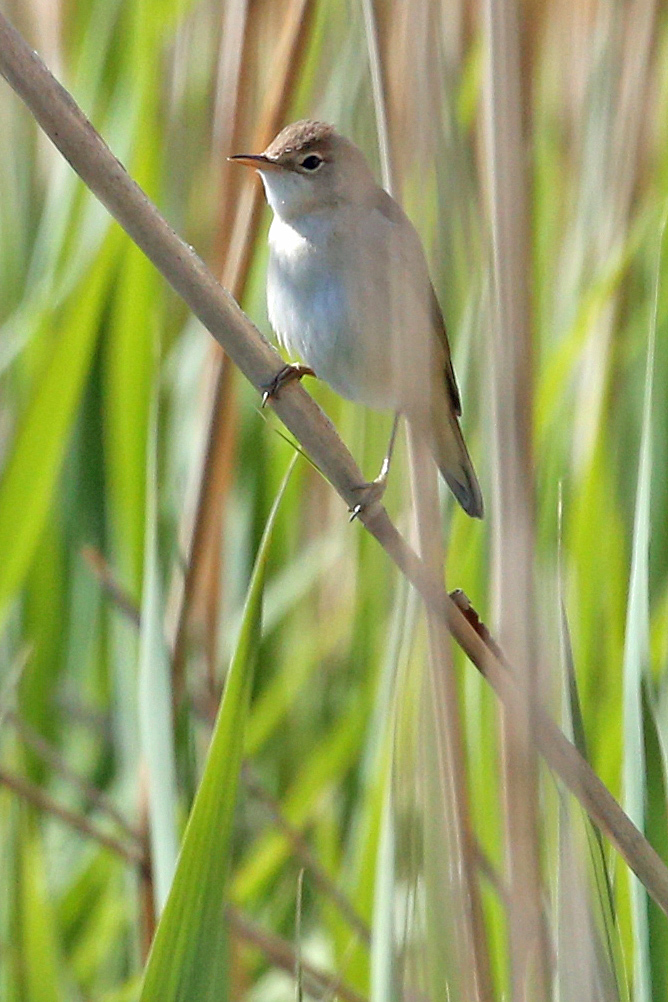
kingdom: Animalia
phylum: Chordata
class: Aves
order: Passeriformes
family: Acrocephalidae
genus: Acrocephalus
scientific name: Acrocephalus scirpaceus
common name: Eurasian reed warbler
